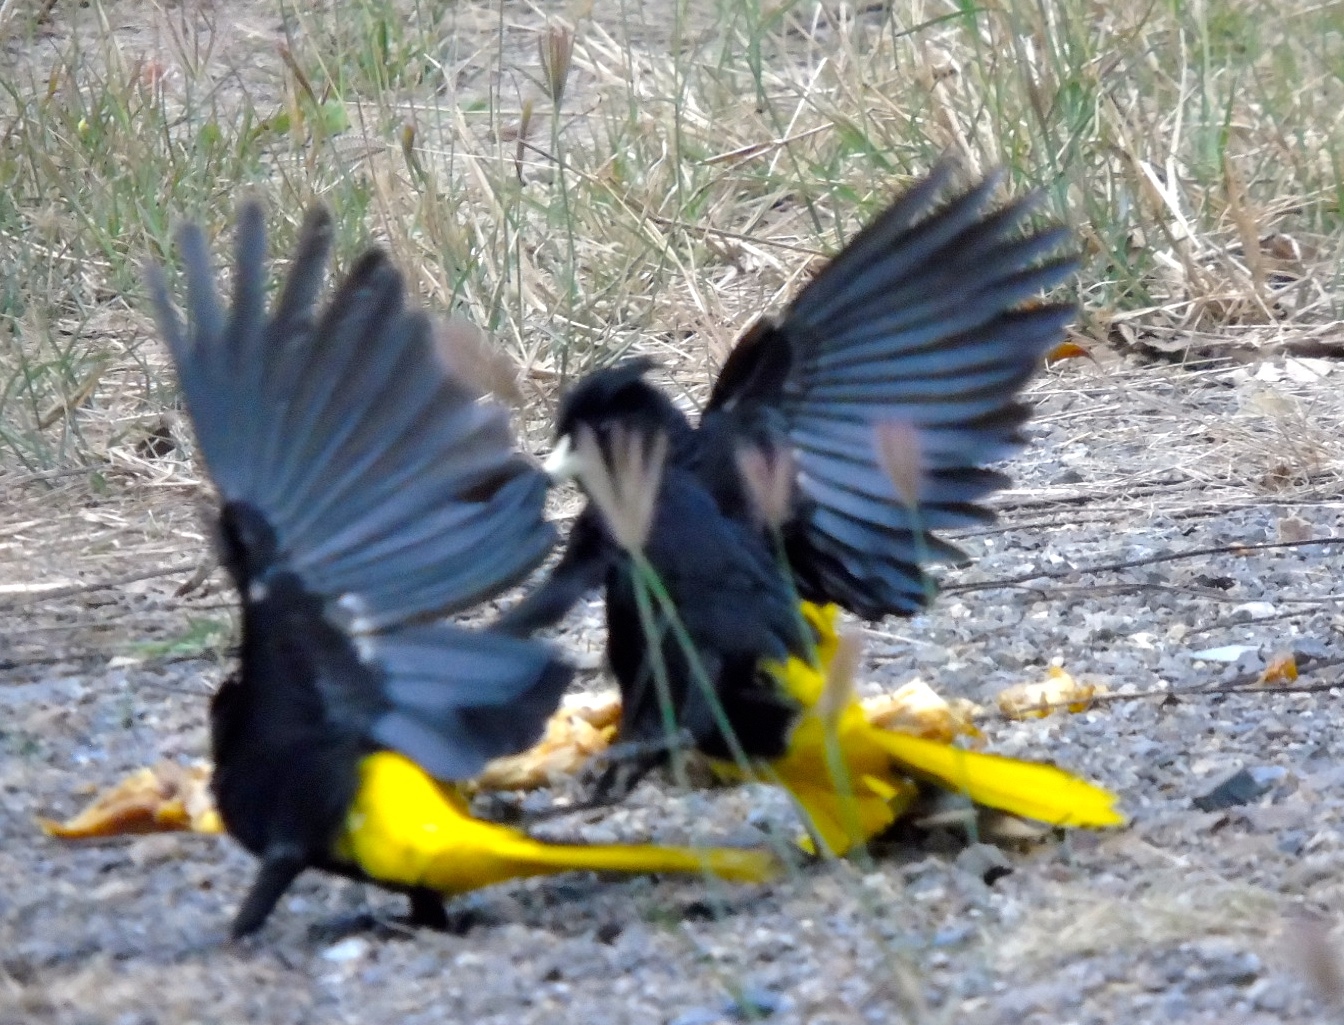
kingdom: Animalia
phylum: Chordata
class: Aves
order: Passeriformes
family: Icteridae
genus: Cacicus
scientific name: Cacicus melanicterus
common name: Yellow-winged cacique
